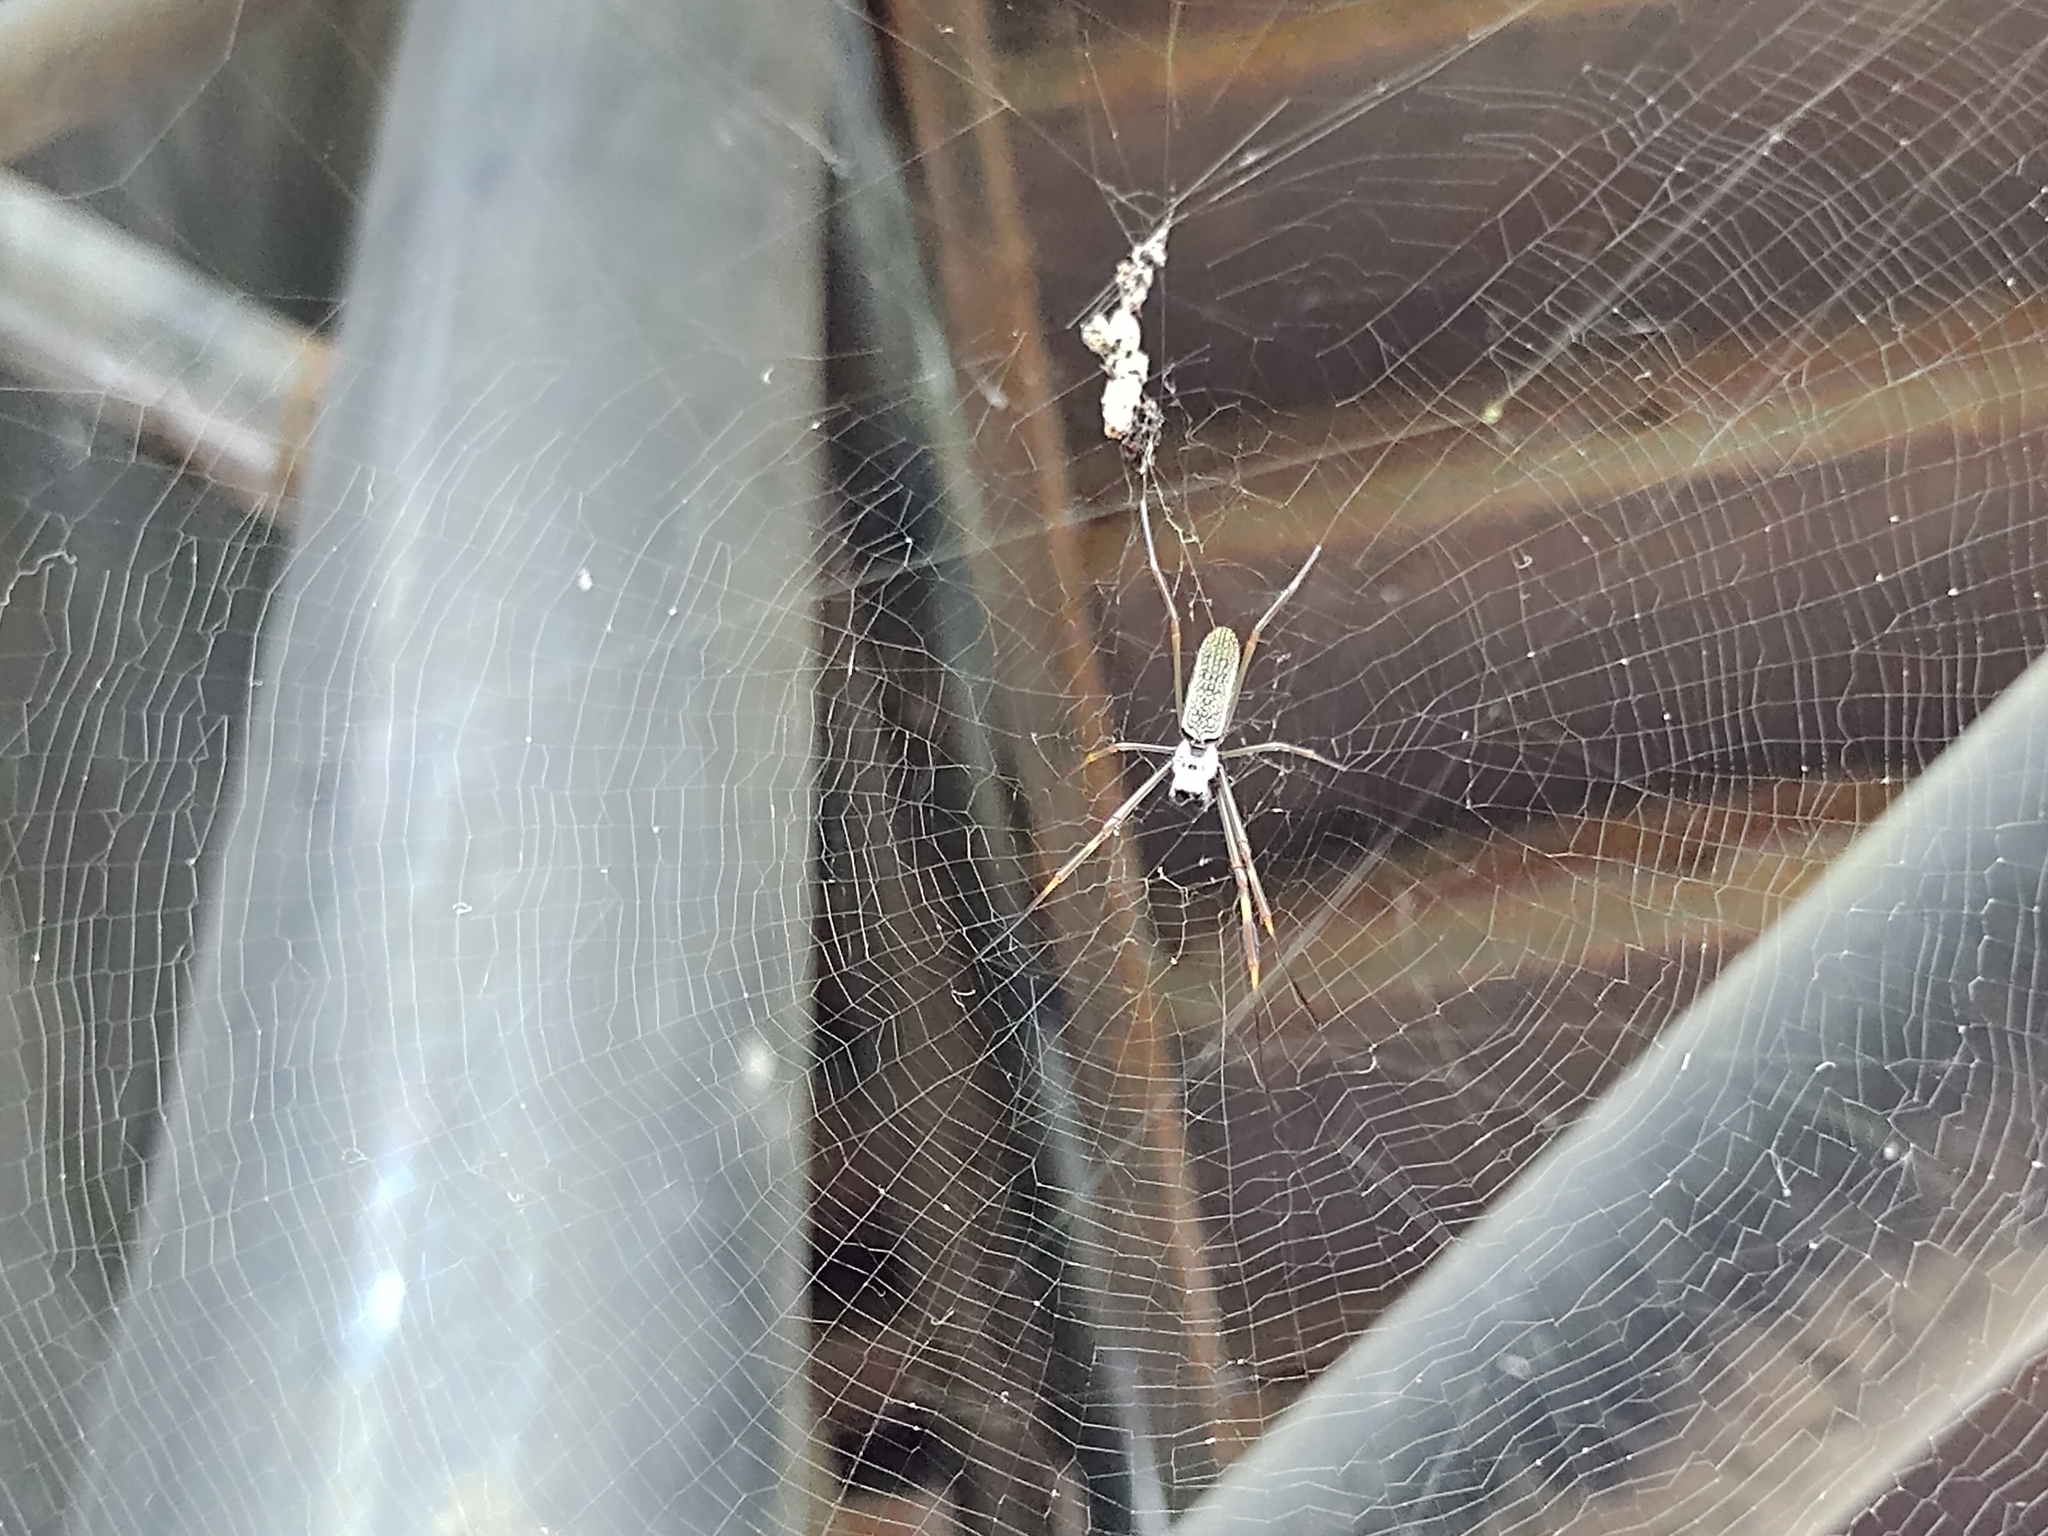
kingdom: Animalia
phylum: Arthropoda
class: Arachnida
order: Araneae
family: Araneidae
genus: Trichonephila
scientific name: Trichonephila clavipes
